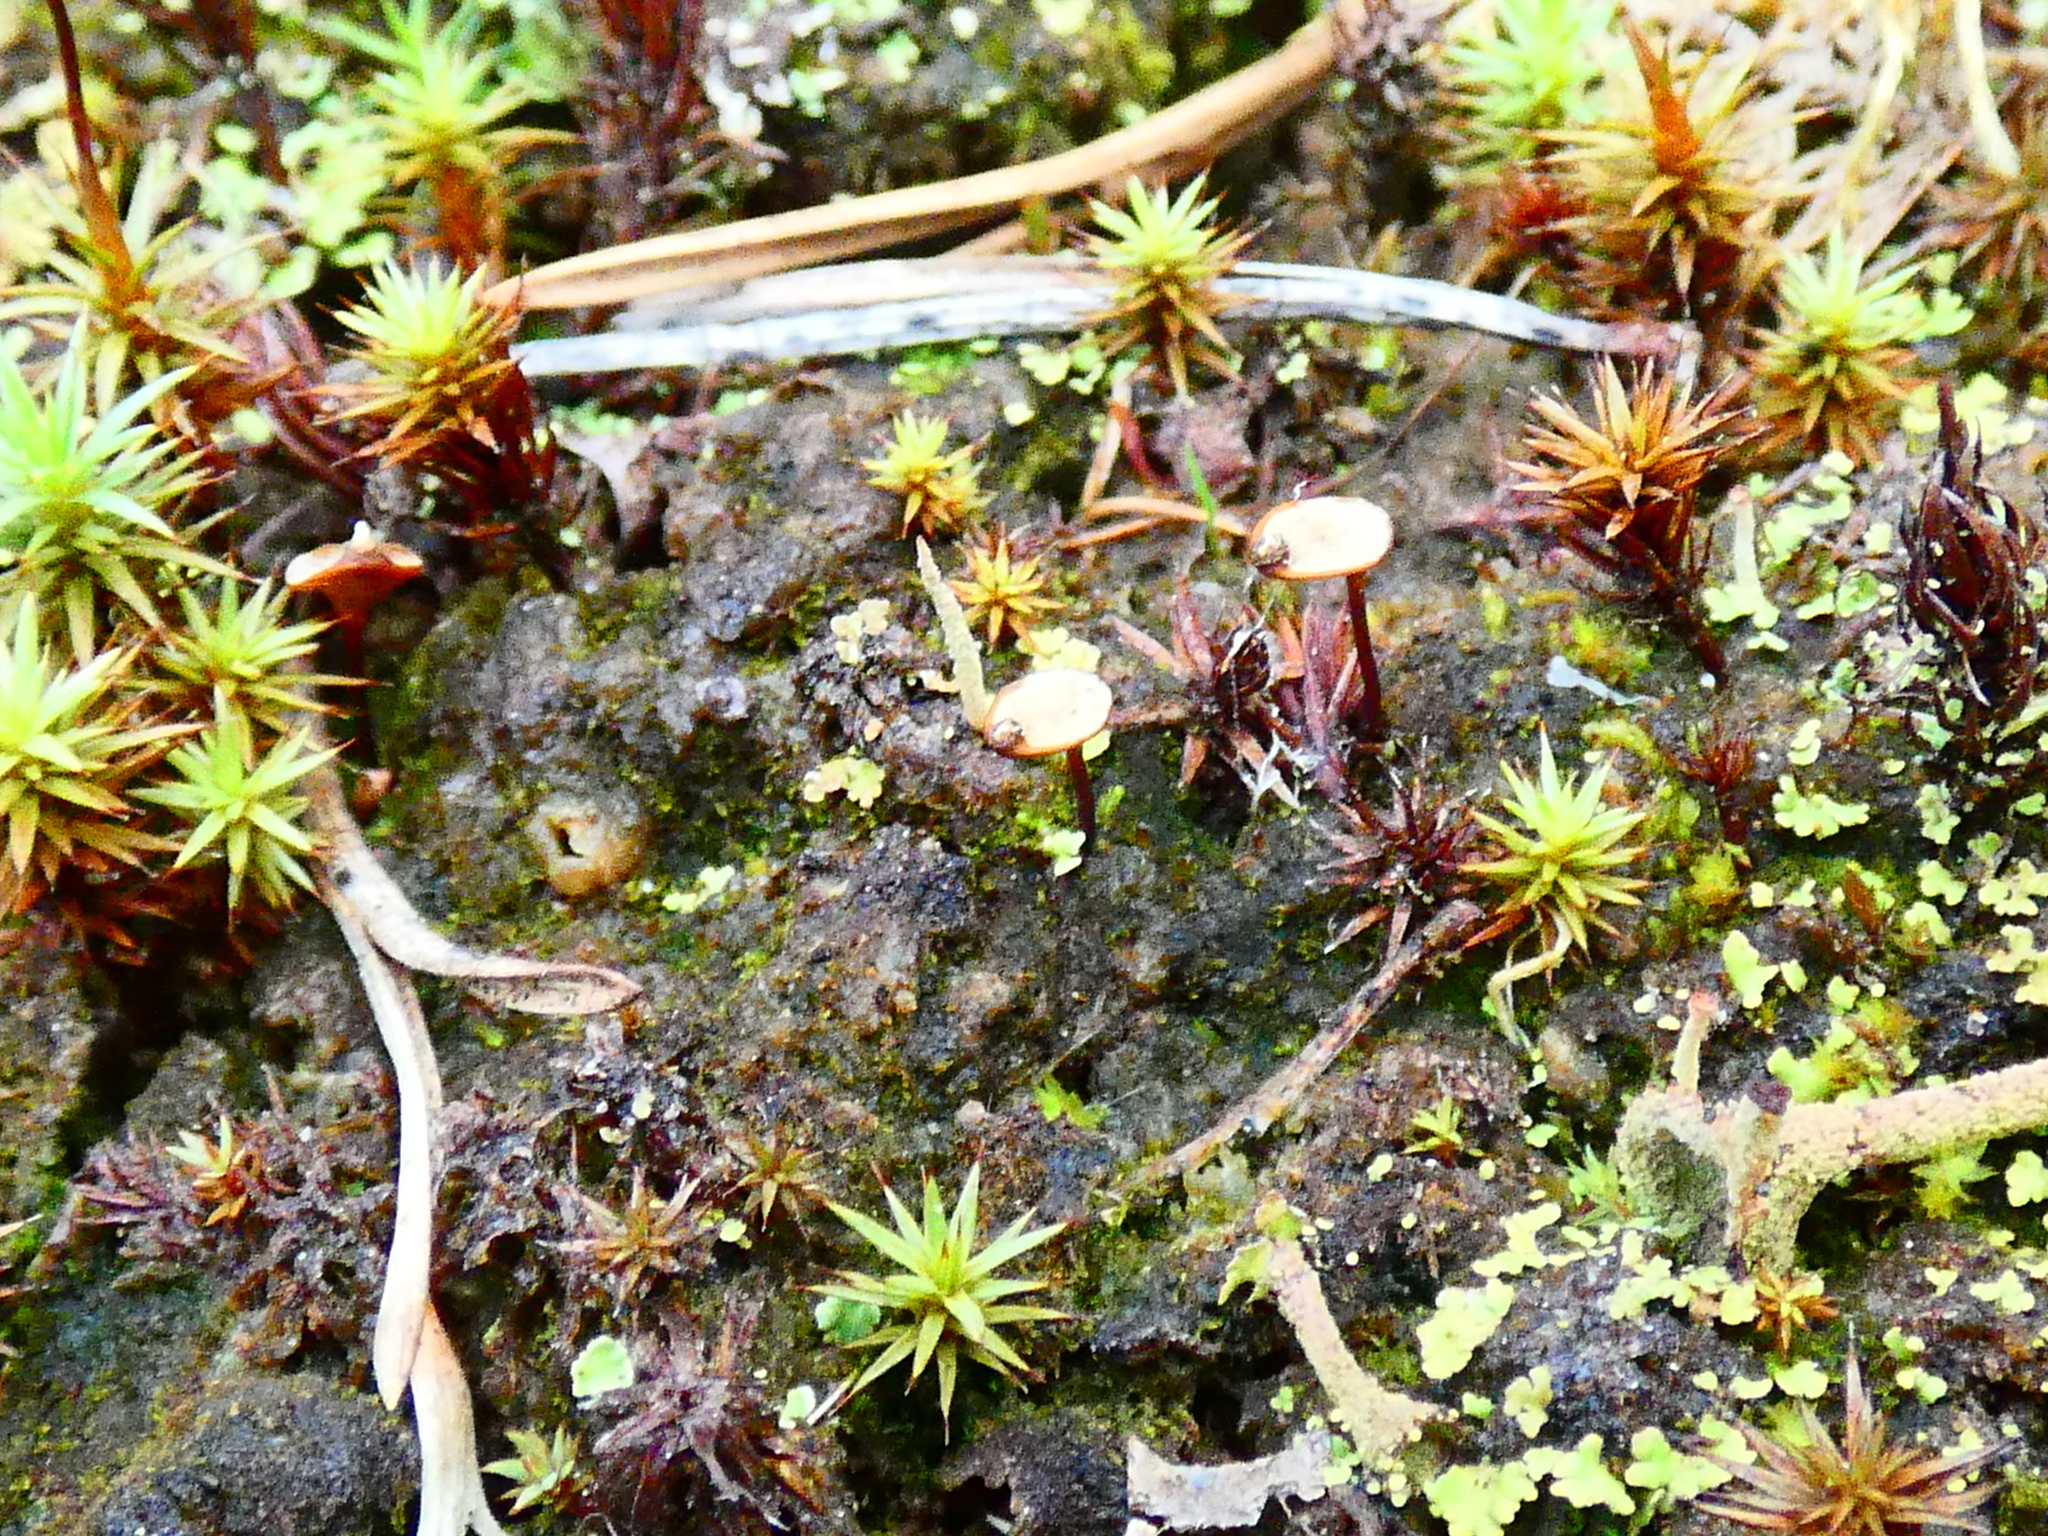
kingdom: Plantae
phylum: Bryophyta
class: Bryopsida
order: Buxbaumiales
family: Buxbaumiaceae
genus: Buxbaumia
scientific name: Buxbaumia aphylla
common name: Brown shield-moss
